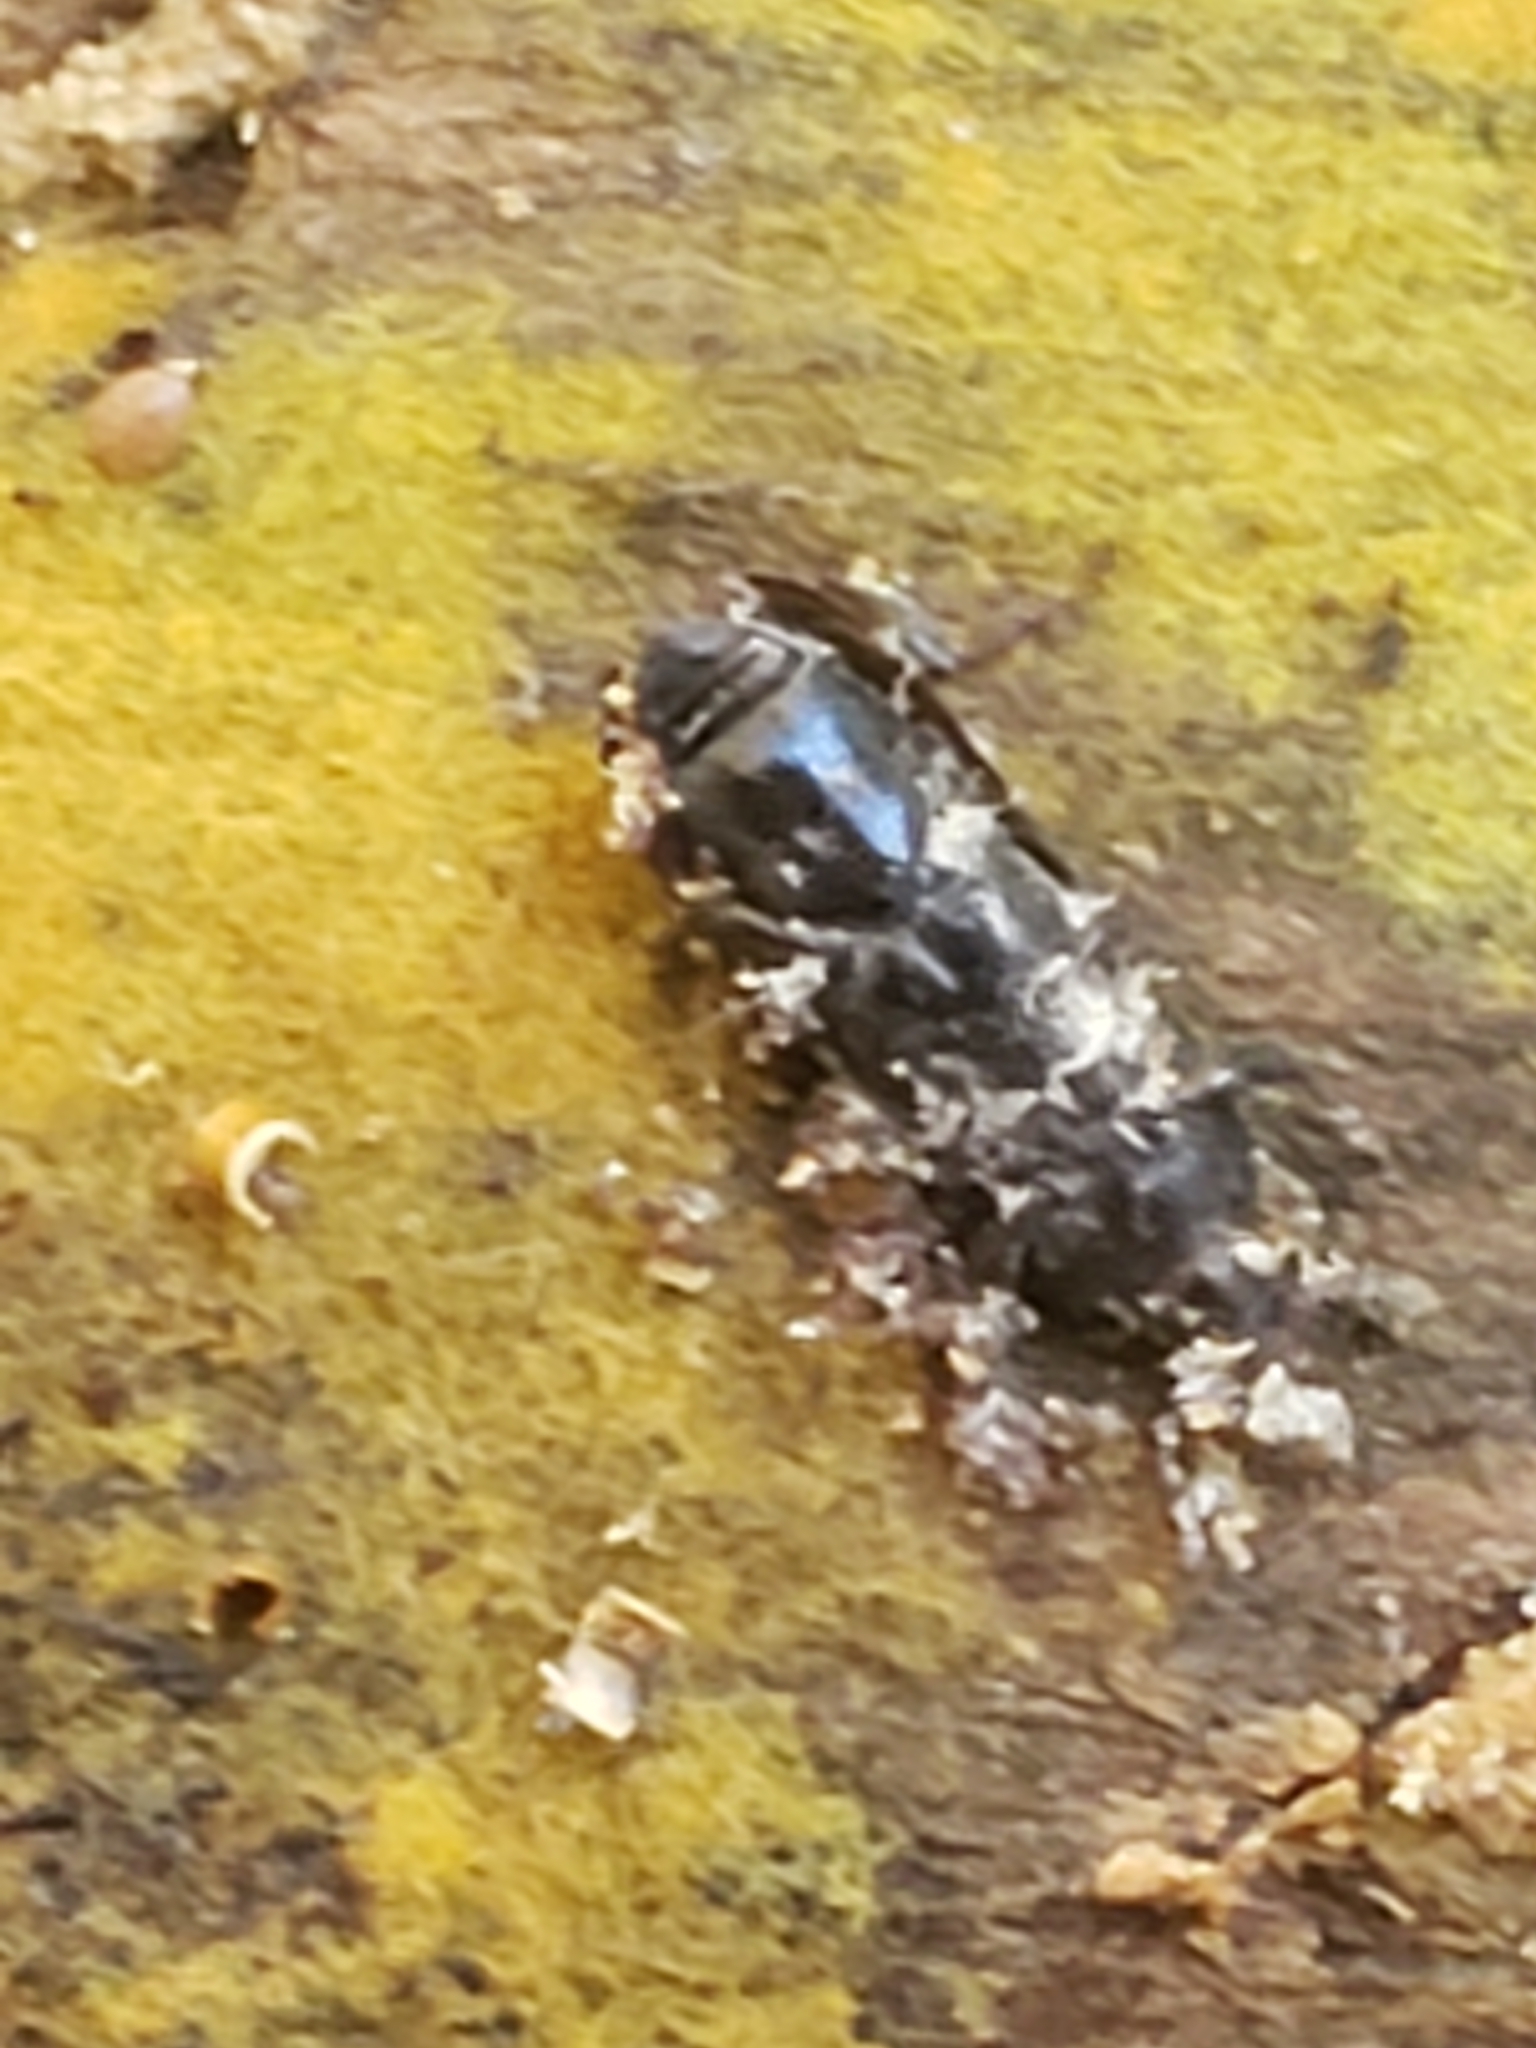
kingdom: Fungi
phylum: Ascomycota
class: Sordariomycetes
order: Hypocreales
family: Cordycipitaceae
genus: Beauveria
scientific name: Beauveria bassiana
